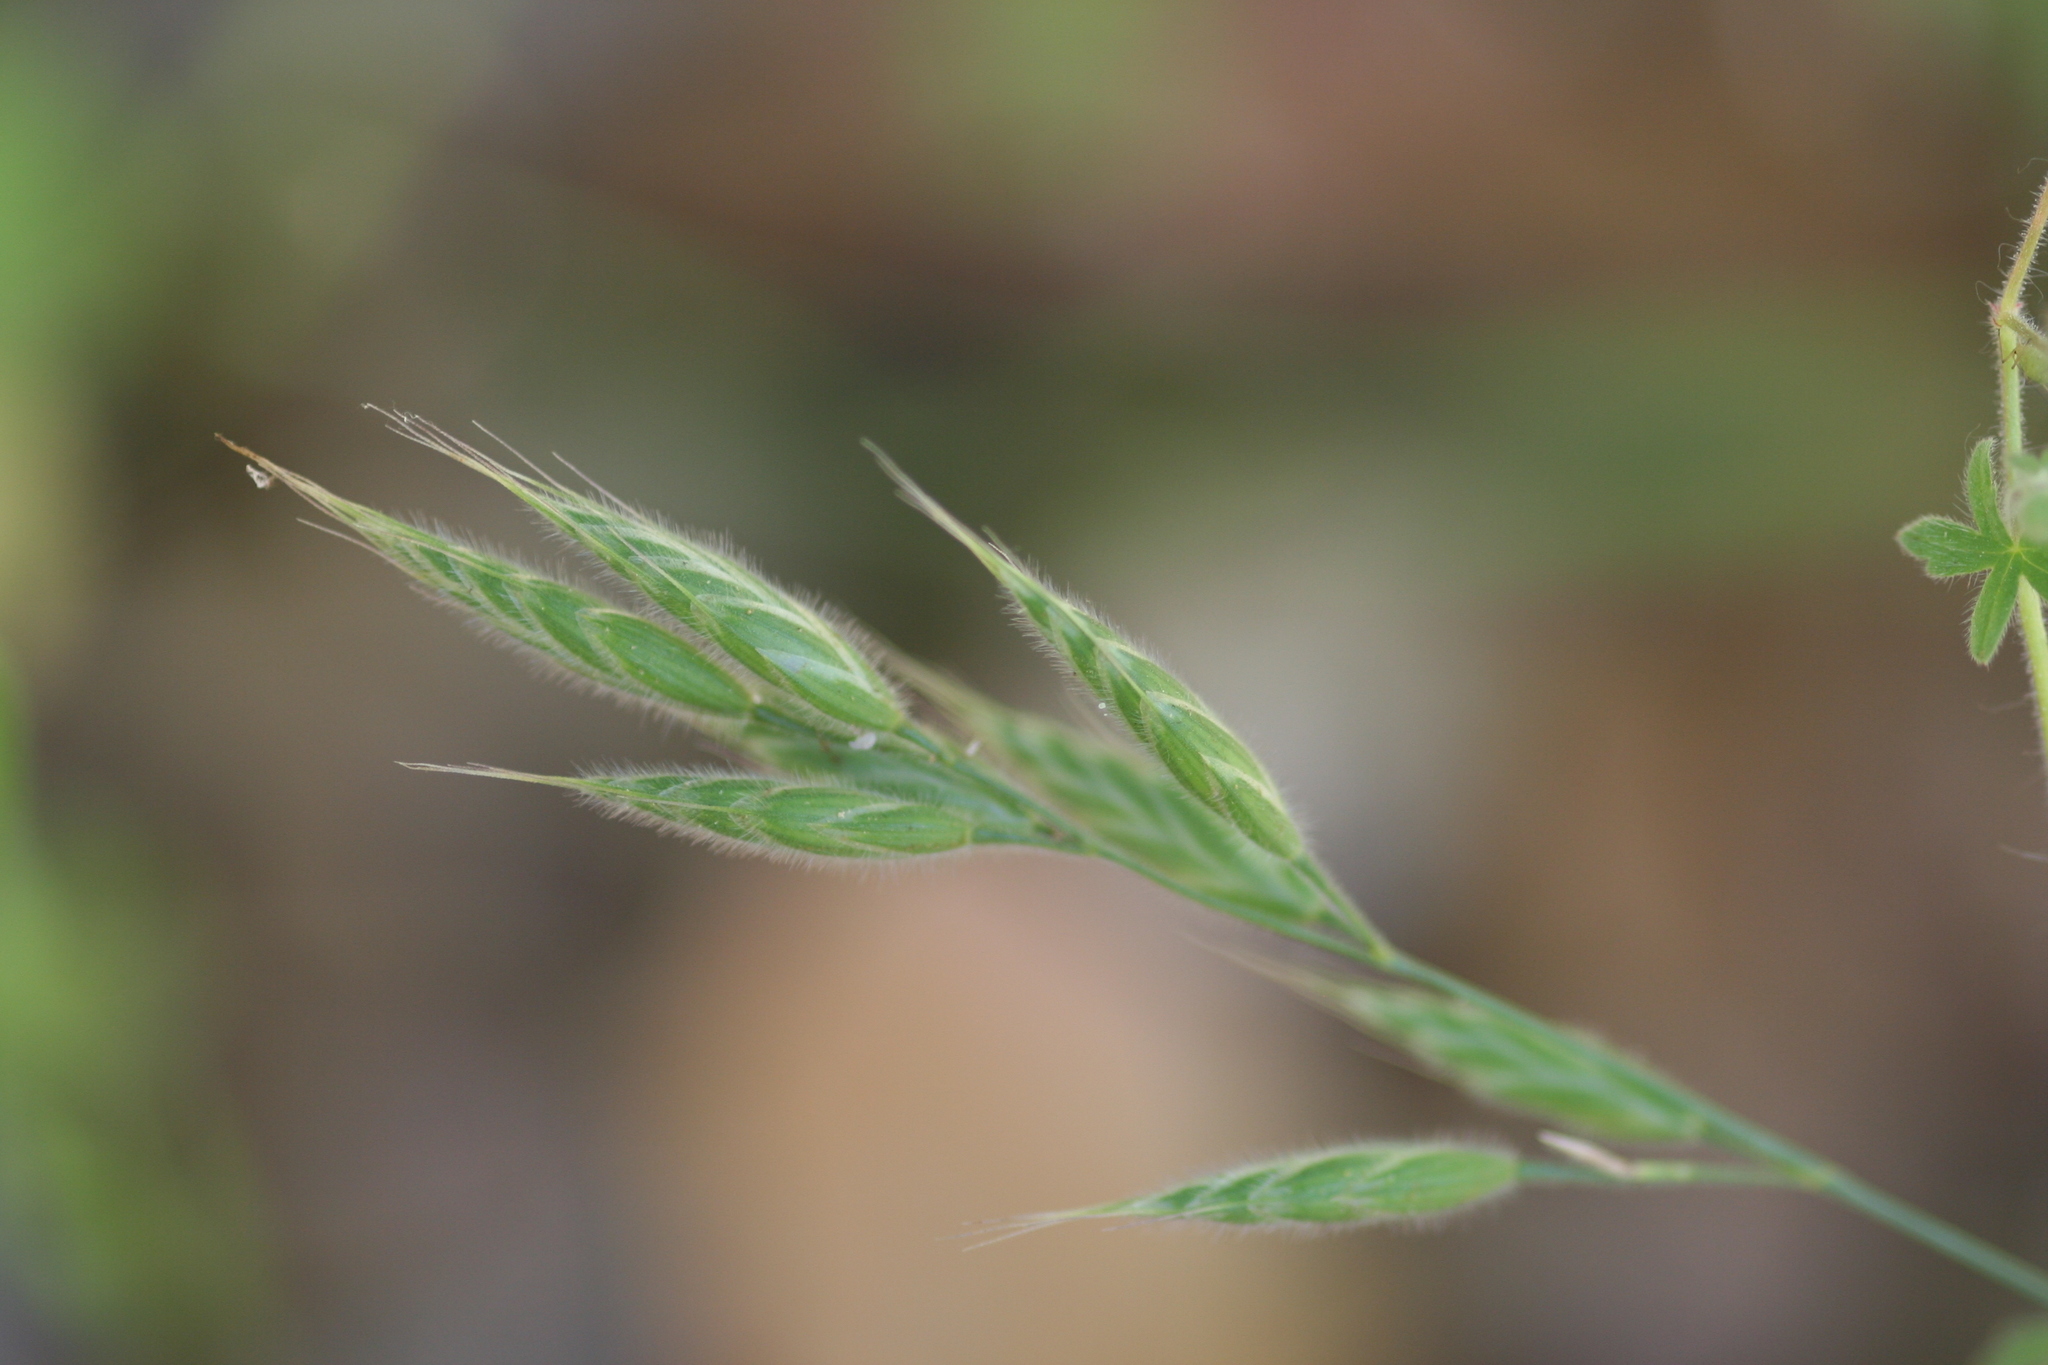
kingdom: Plantae
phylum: Tracheophyta
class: Liliopsida
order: Poales
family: Poaceae
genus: Bromus
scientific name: Bromus hordeaceus
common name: Soft brome
